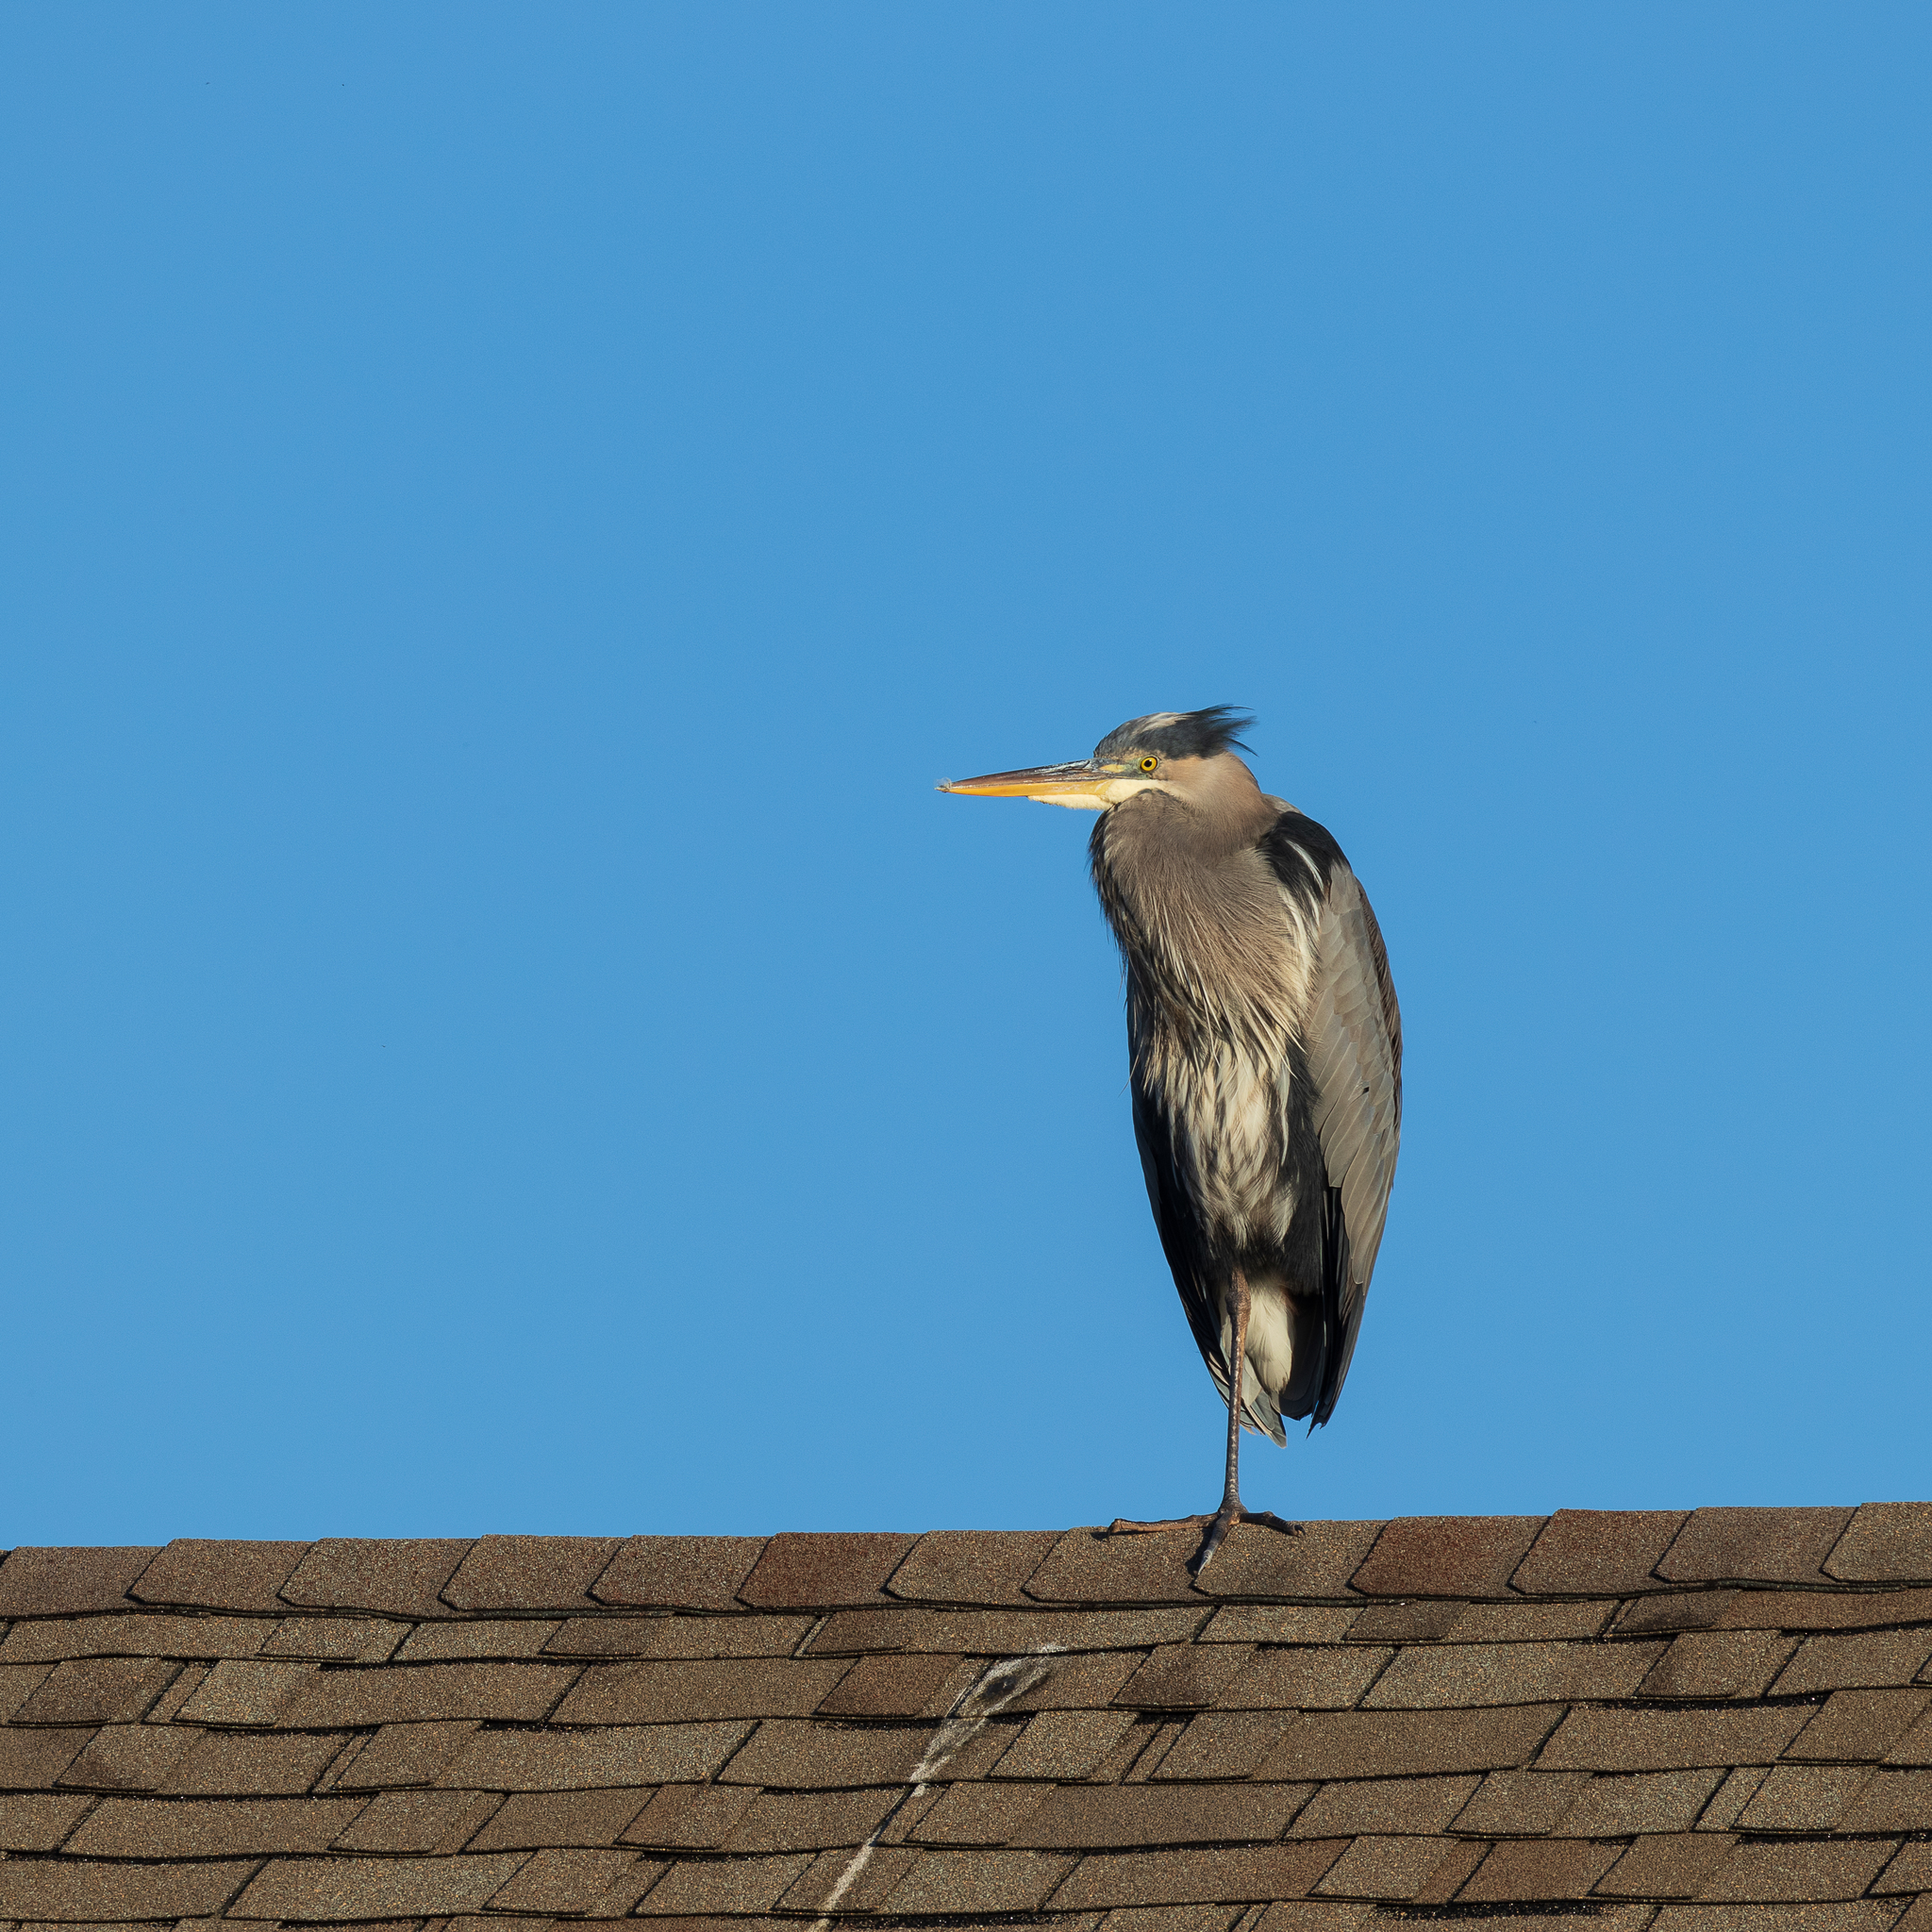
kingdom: Animalia
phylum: Chordata
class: Aves
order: Pelecaniformes
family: Ardeidae
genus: Ardea
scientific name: Ardea herodias
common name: Great blue heron
